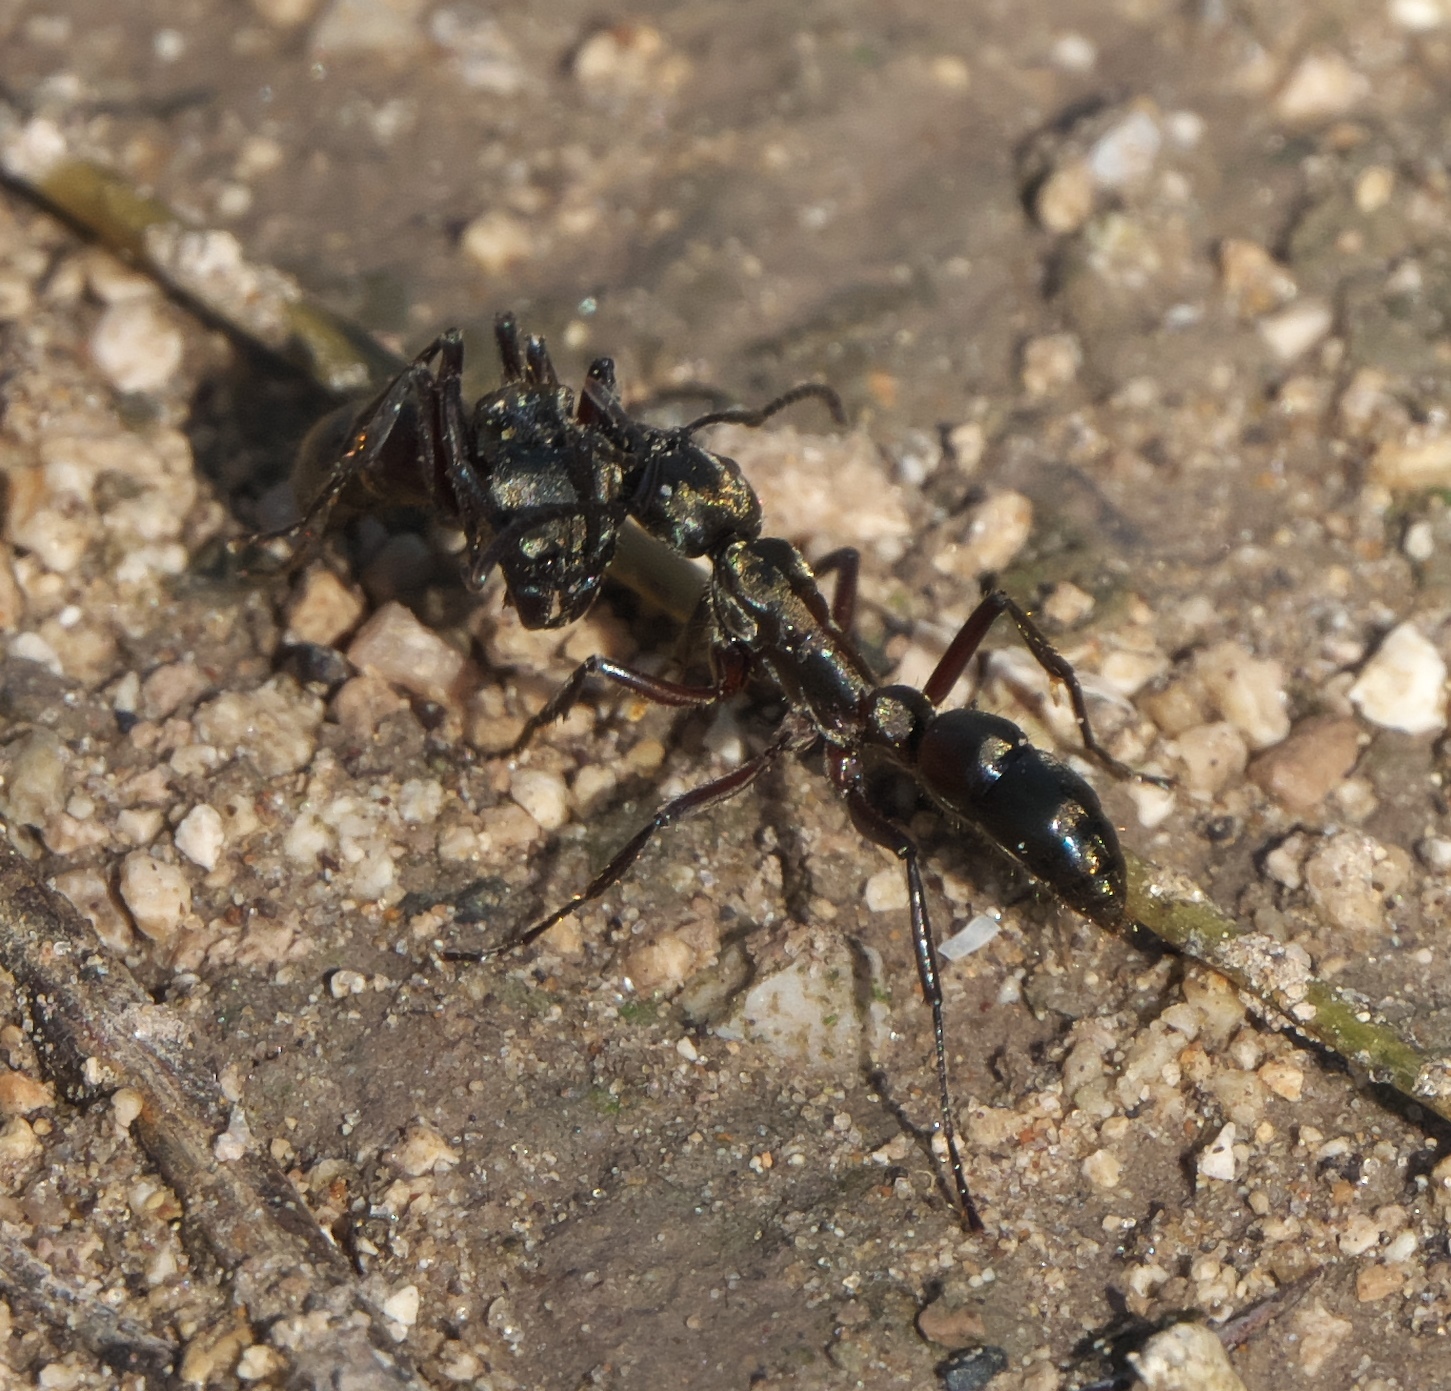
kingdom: Animalia
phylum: Arthropoda
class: Insecta
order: Hymenoptera
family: Formicidae
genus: Pachycondyla
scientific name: Pachycondyla villosa
